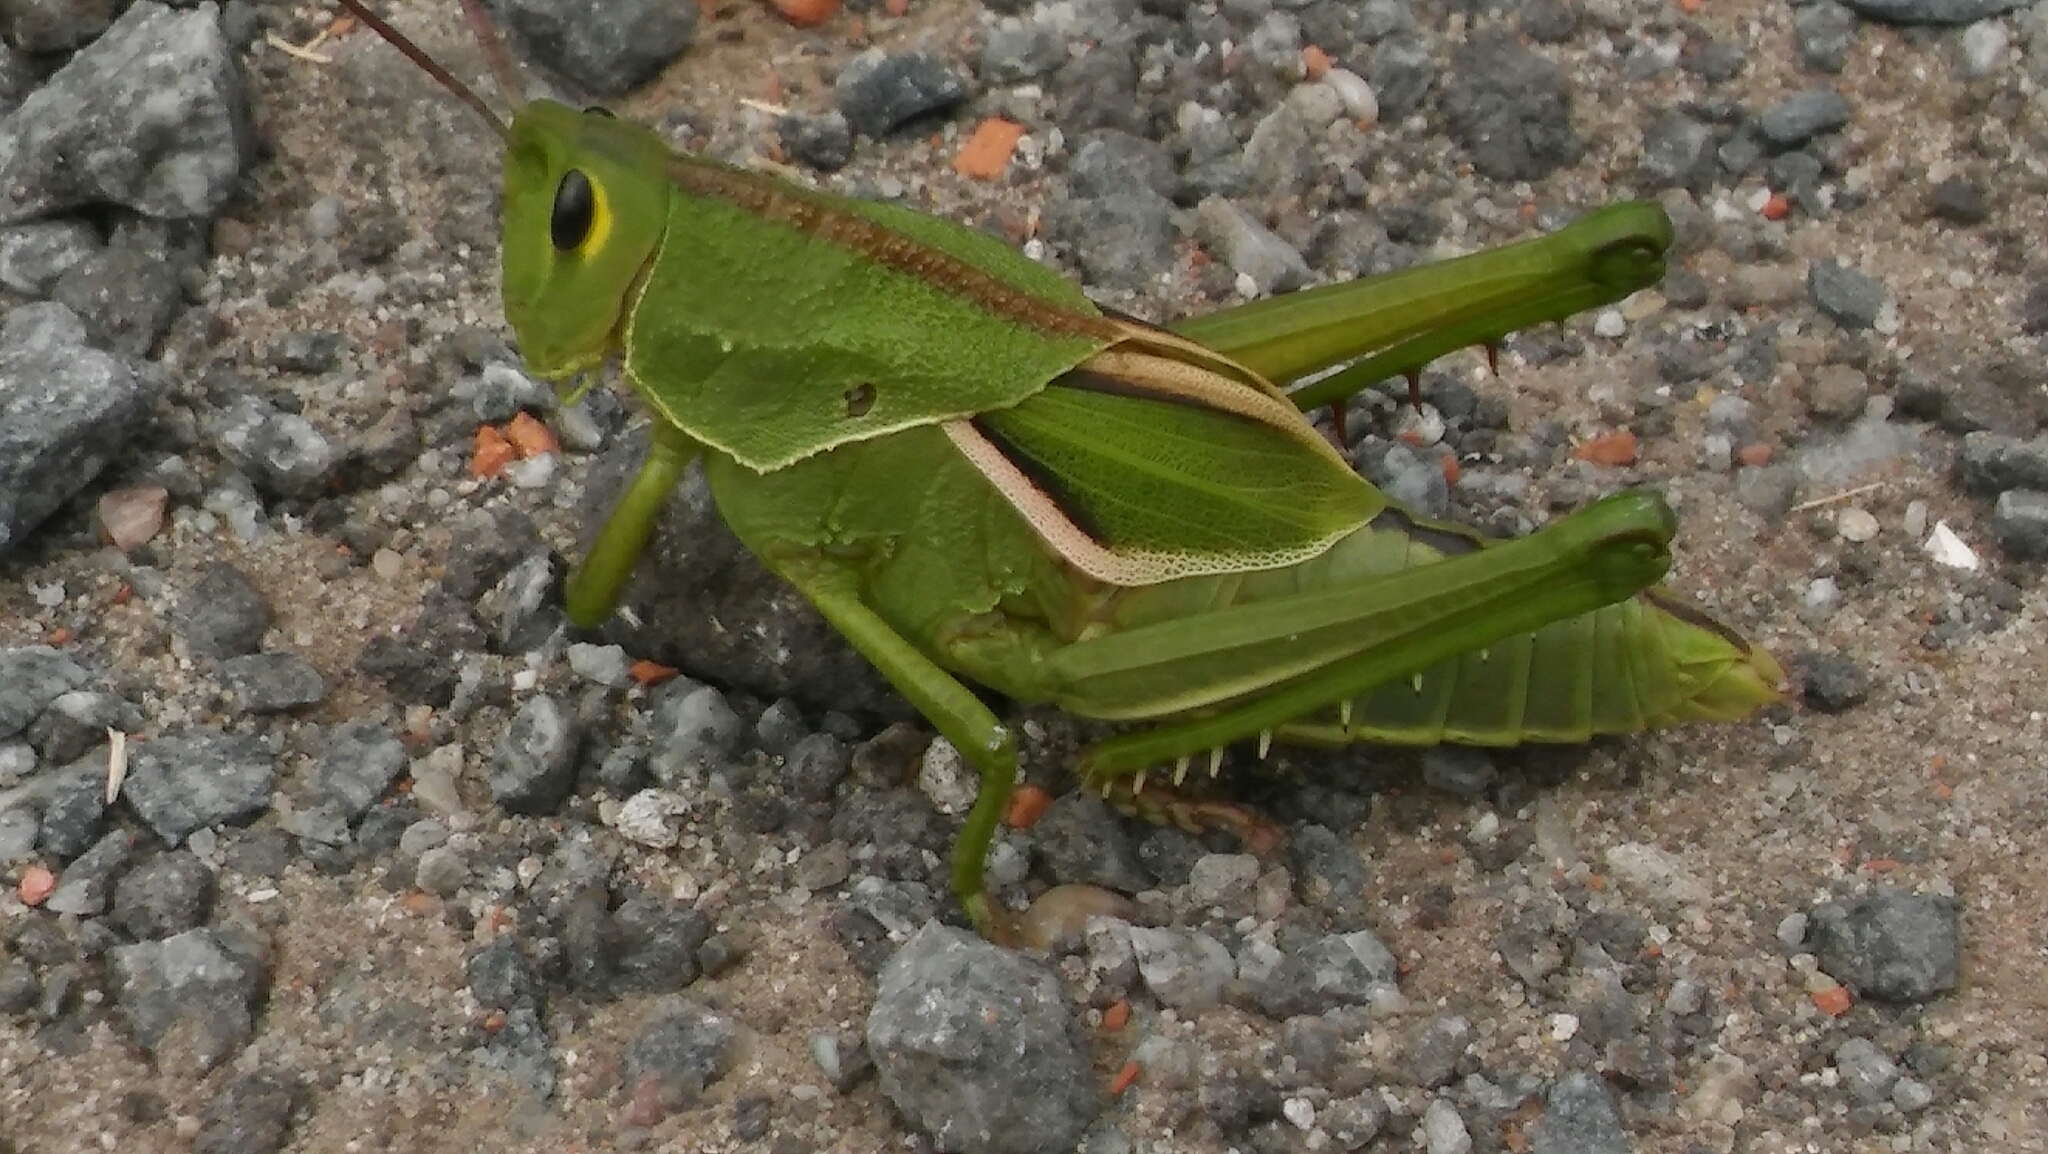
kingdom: Animalia
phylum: Arthropoda
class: Insecta
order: Orthoptera
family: Romaleidae
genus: Staleochlora
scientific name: Staleochlora viridicata
